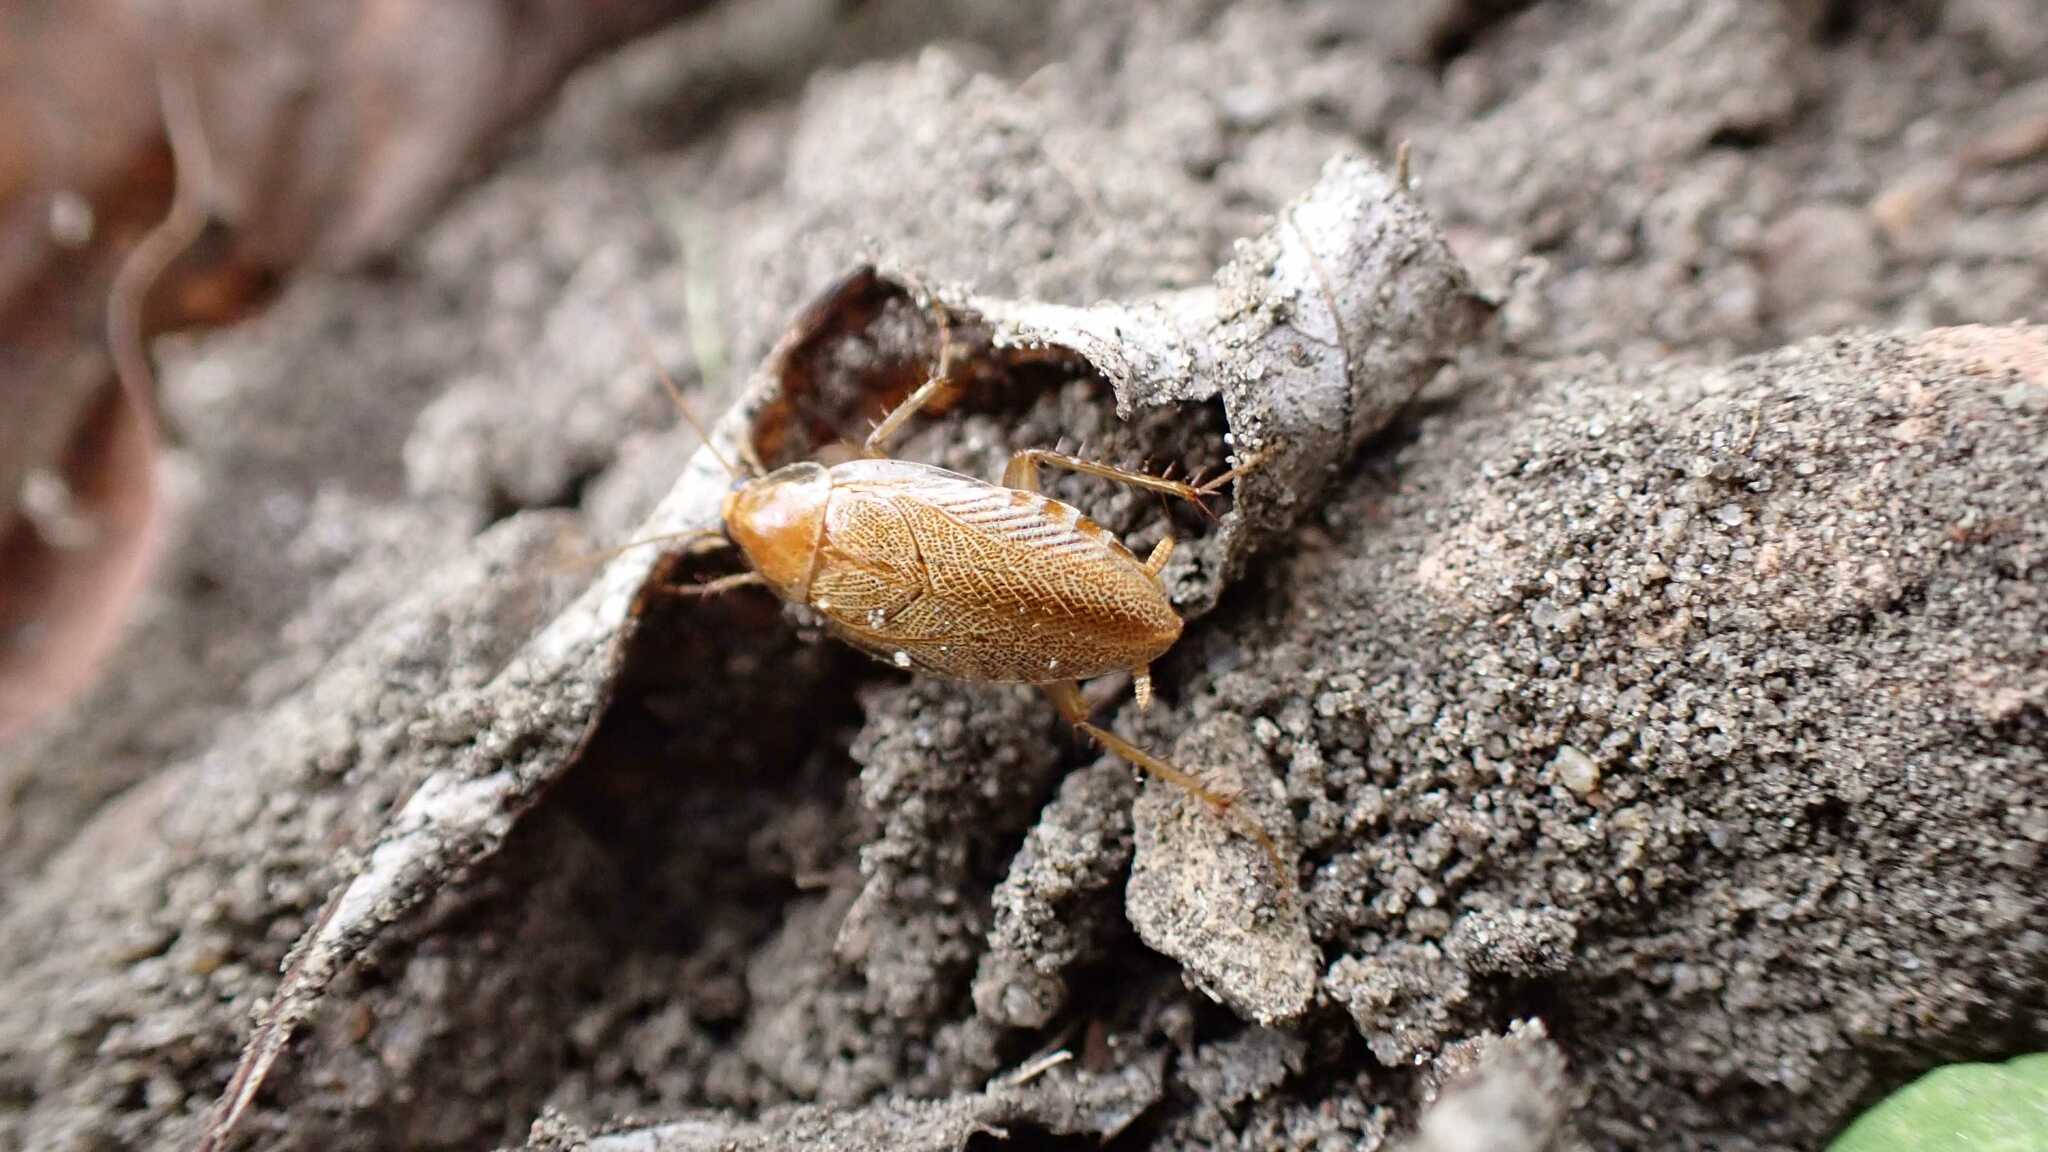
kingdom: Animalia
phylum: Arthropoda
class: Insecta
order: Blattodea
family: Ectobiidae
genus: Ectobius
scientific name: Ectobius vittiventris
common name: Garden cockroach
